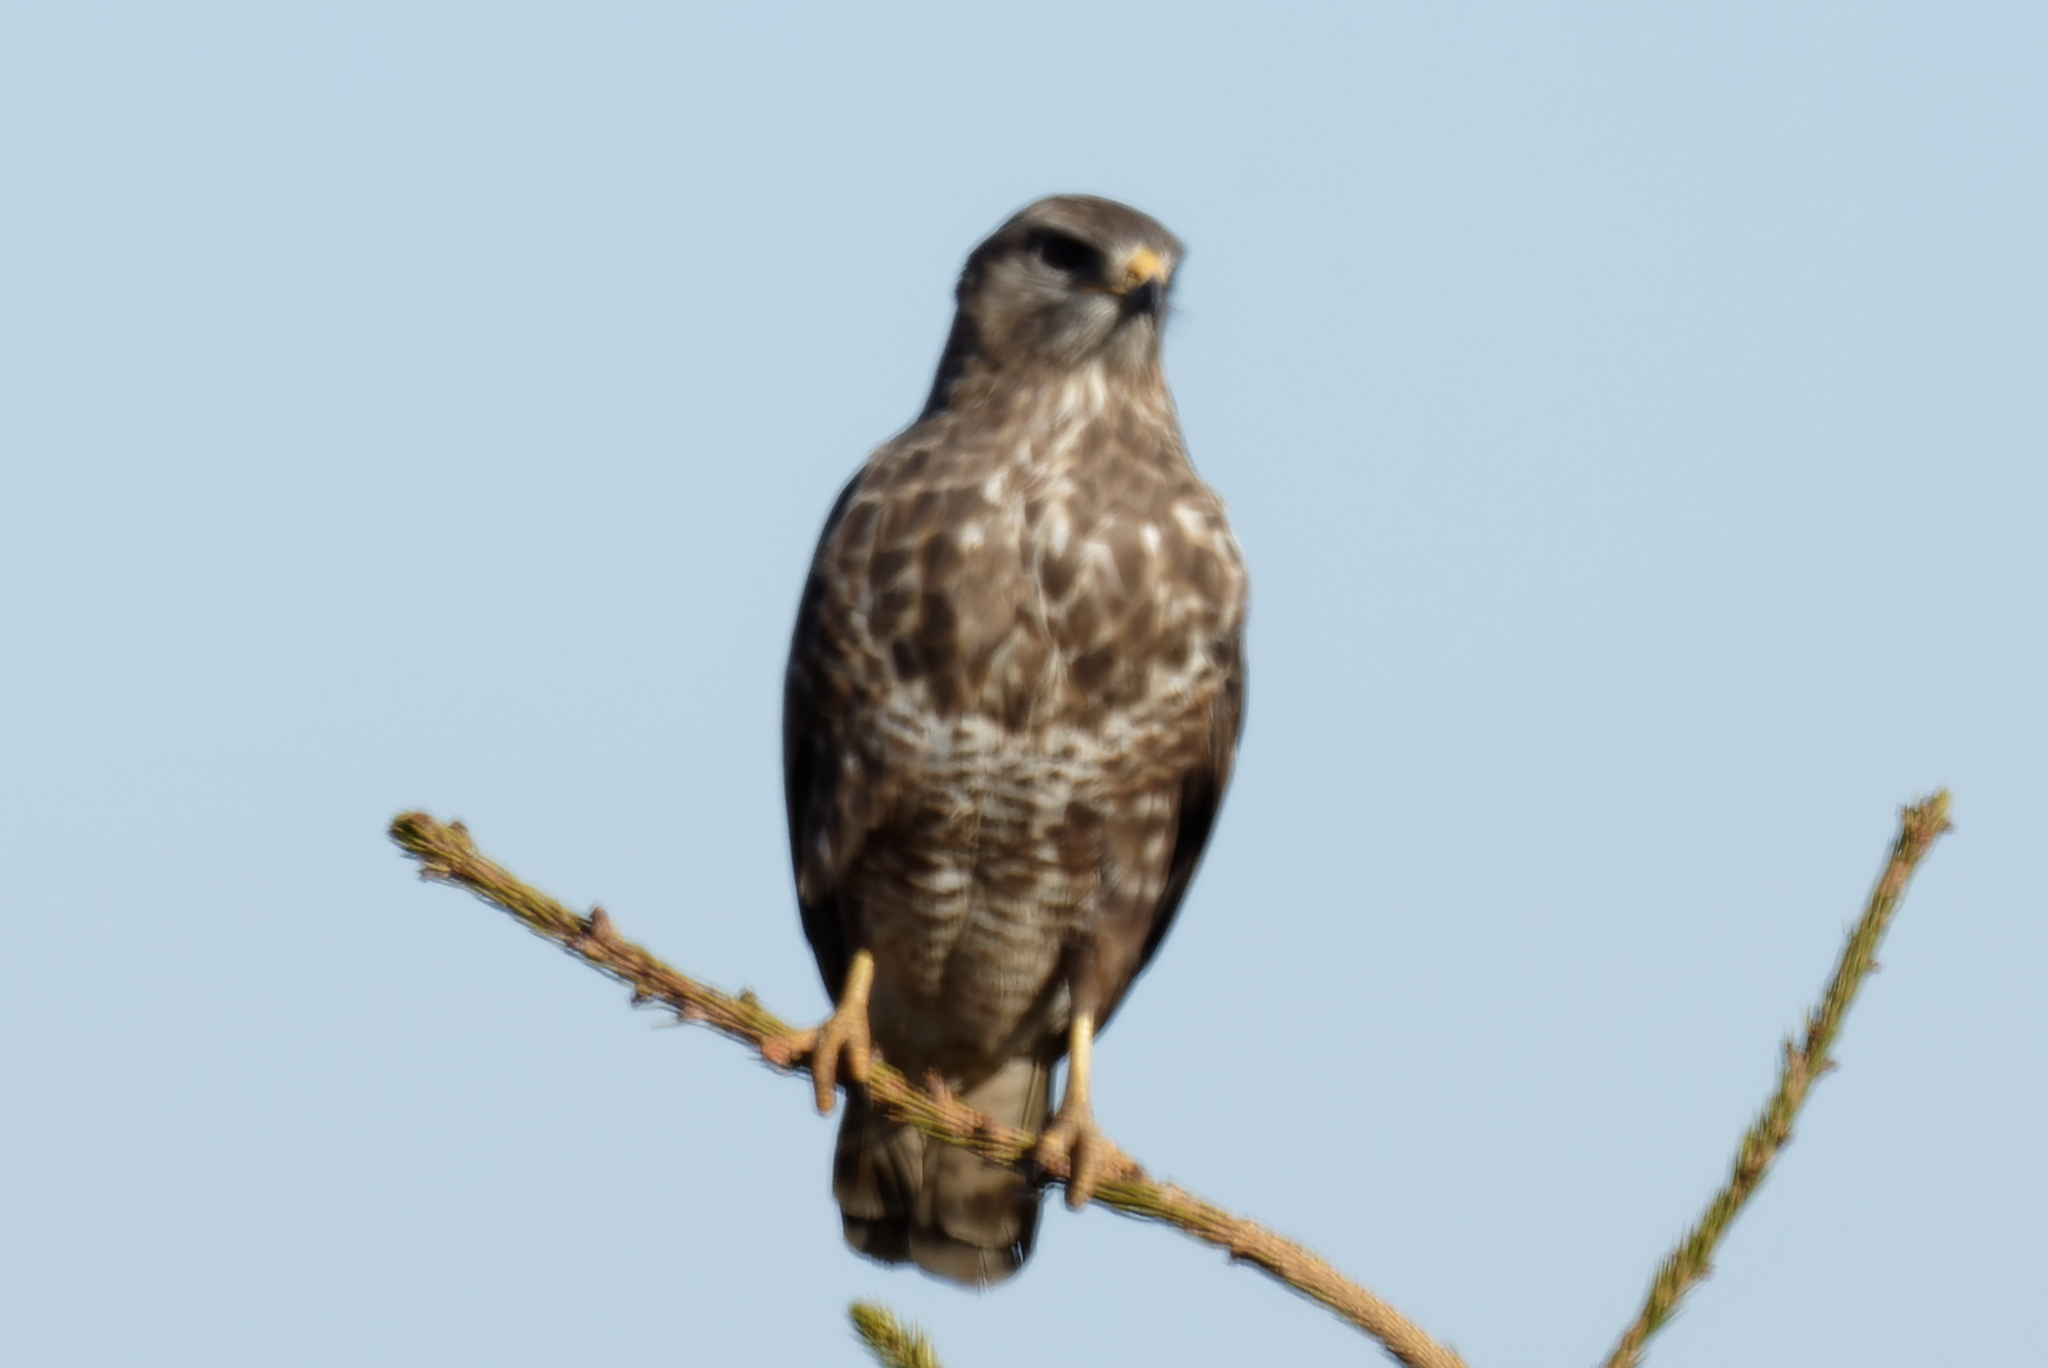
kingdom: Animalia
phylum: Chordata
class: Aves
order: Accipitriformes
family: Accipitridae
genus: Buteo
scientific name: Buteo buteo
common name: Common buzzard
